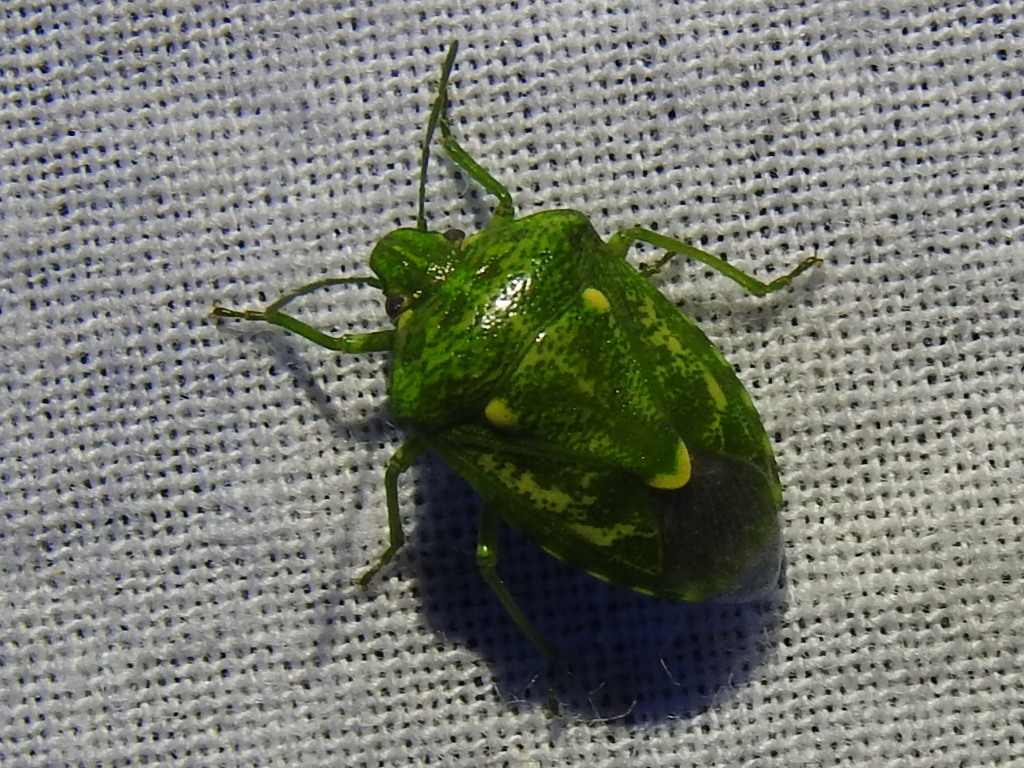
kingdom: Animalia
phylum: Arthropoda
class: Insecta
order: Hemiptera
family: Pentatomidae
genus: Banasa
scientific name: Banasa euchlora
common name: Cedar berry bug
